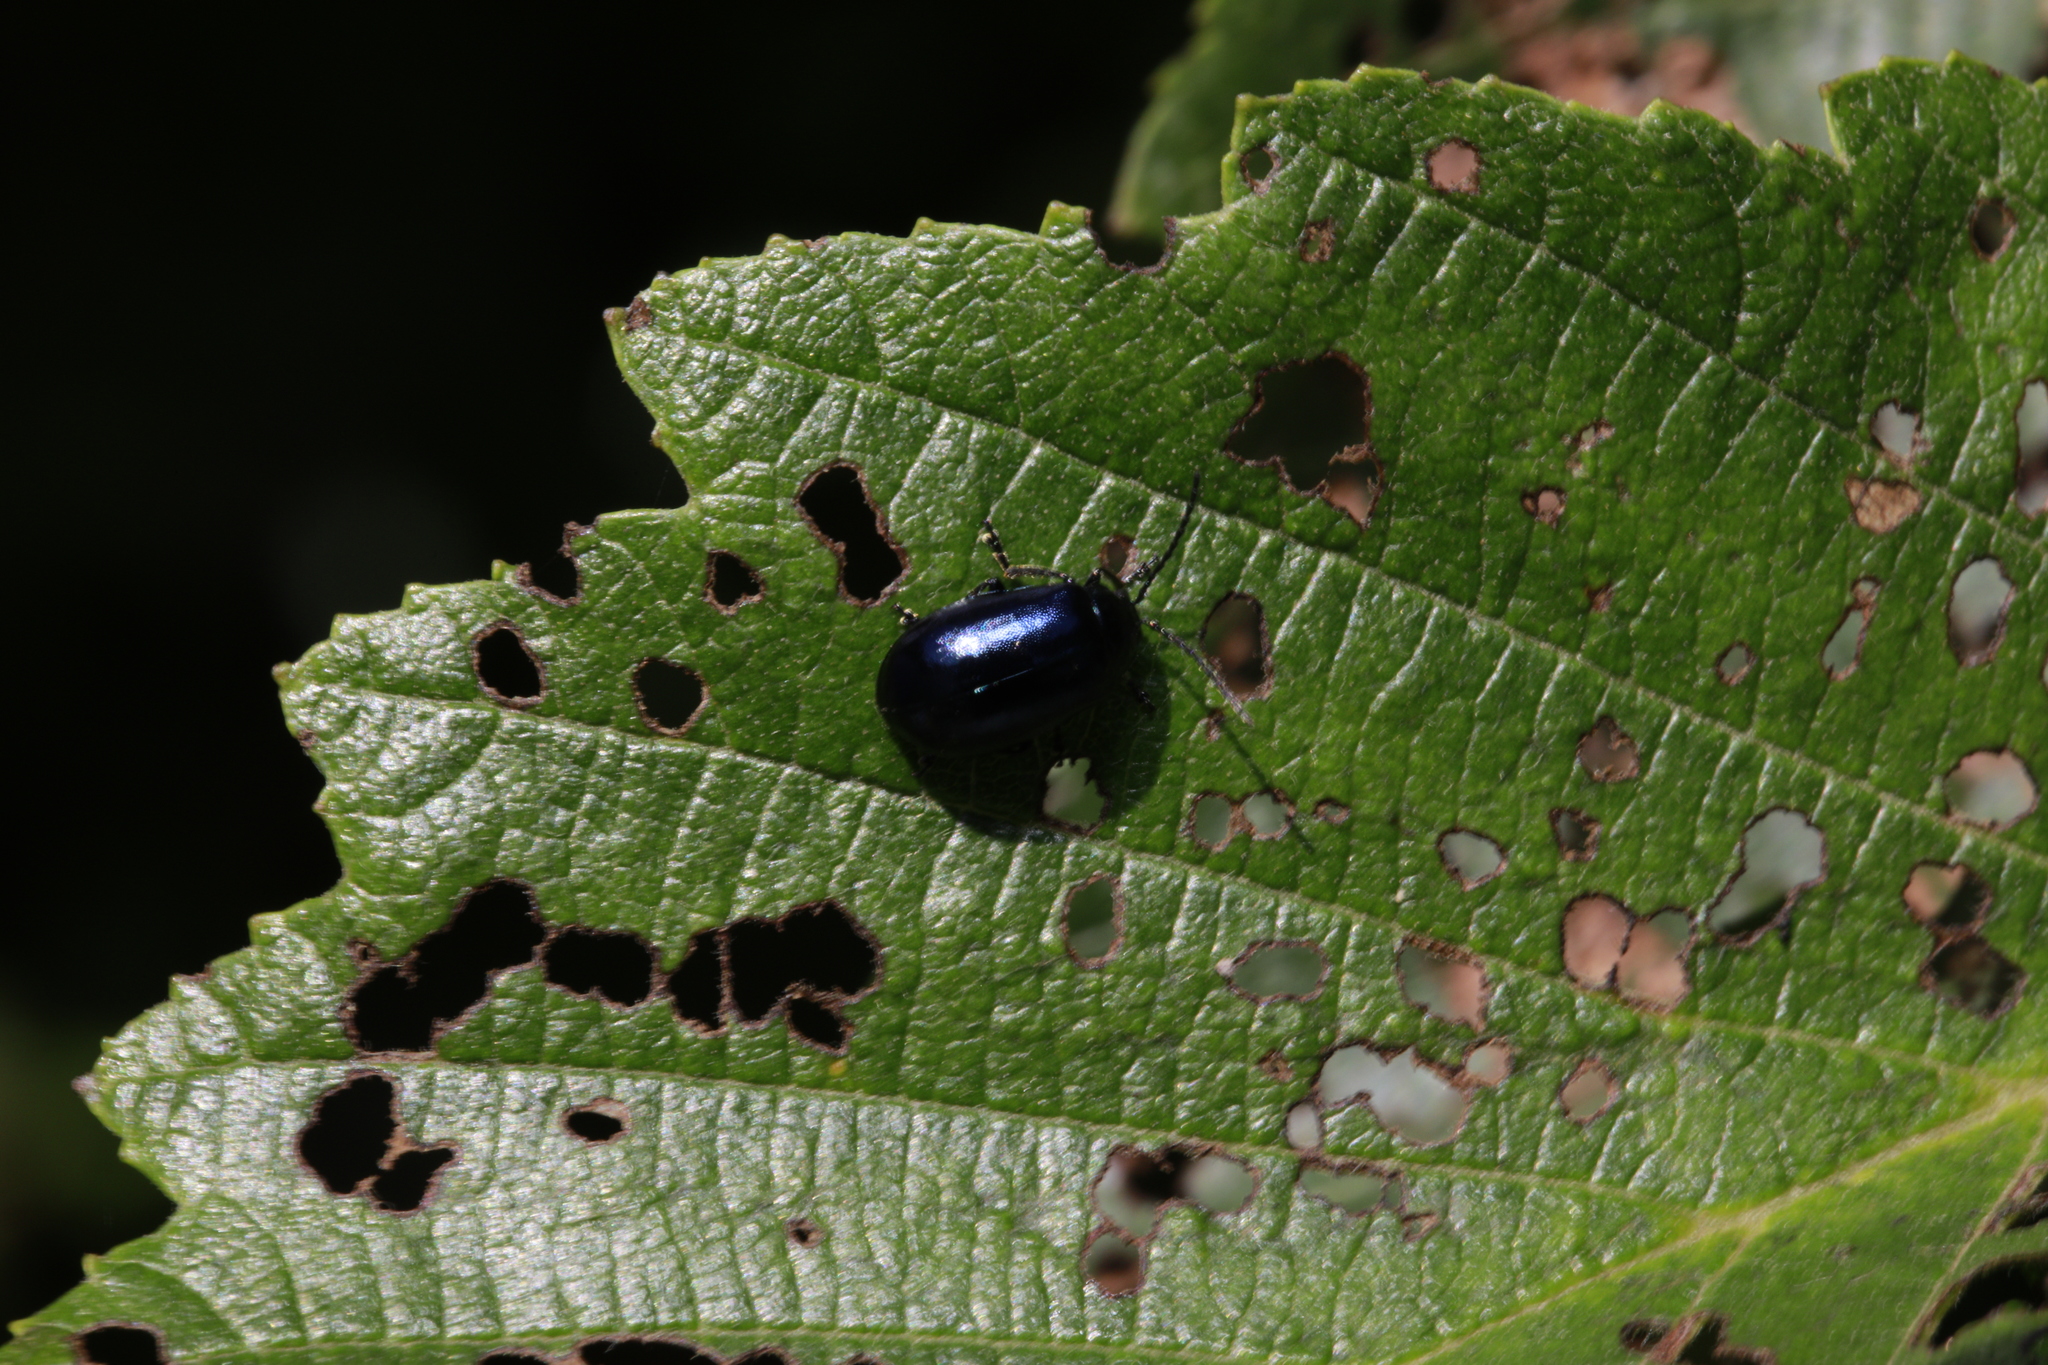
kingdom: Animalia
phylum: Arthropoda
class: Insecta
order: Coleoptera
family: Chrysomelidae
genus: Agelastica
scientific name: Agelastica alni
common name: Alder leaf beetle
